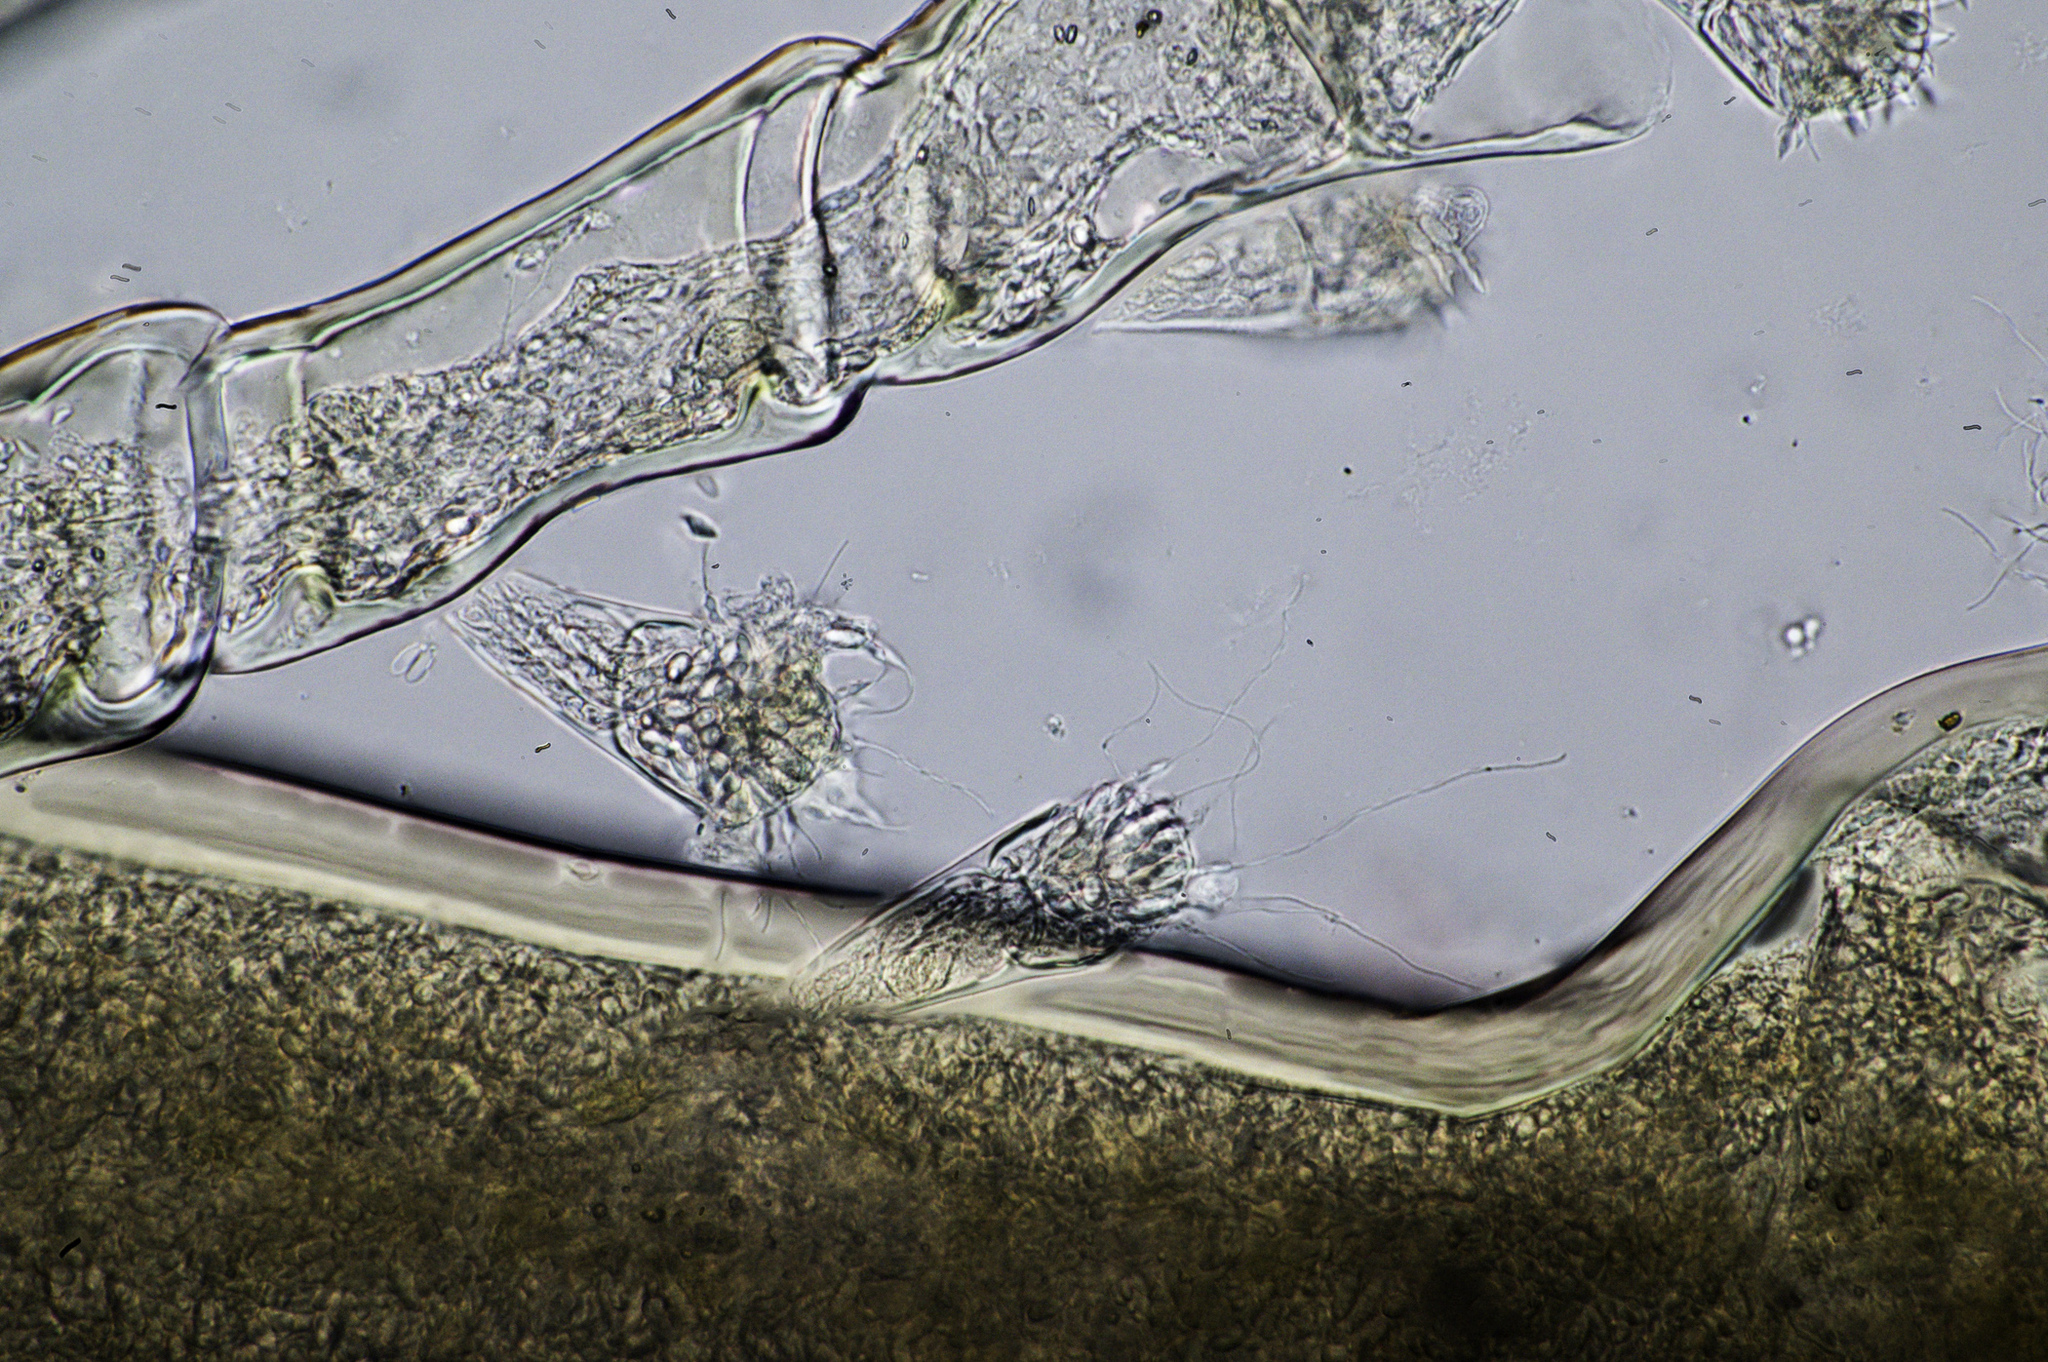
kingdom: Animalia
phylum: Cnidaria
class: Hydrozoa
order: Leptothecata
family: Plumulariidae
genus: Nemertesia
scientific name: Nemertesia norvegica
